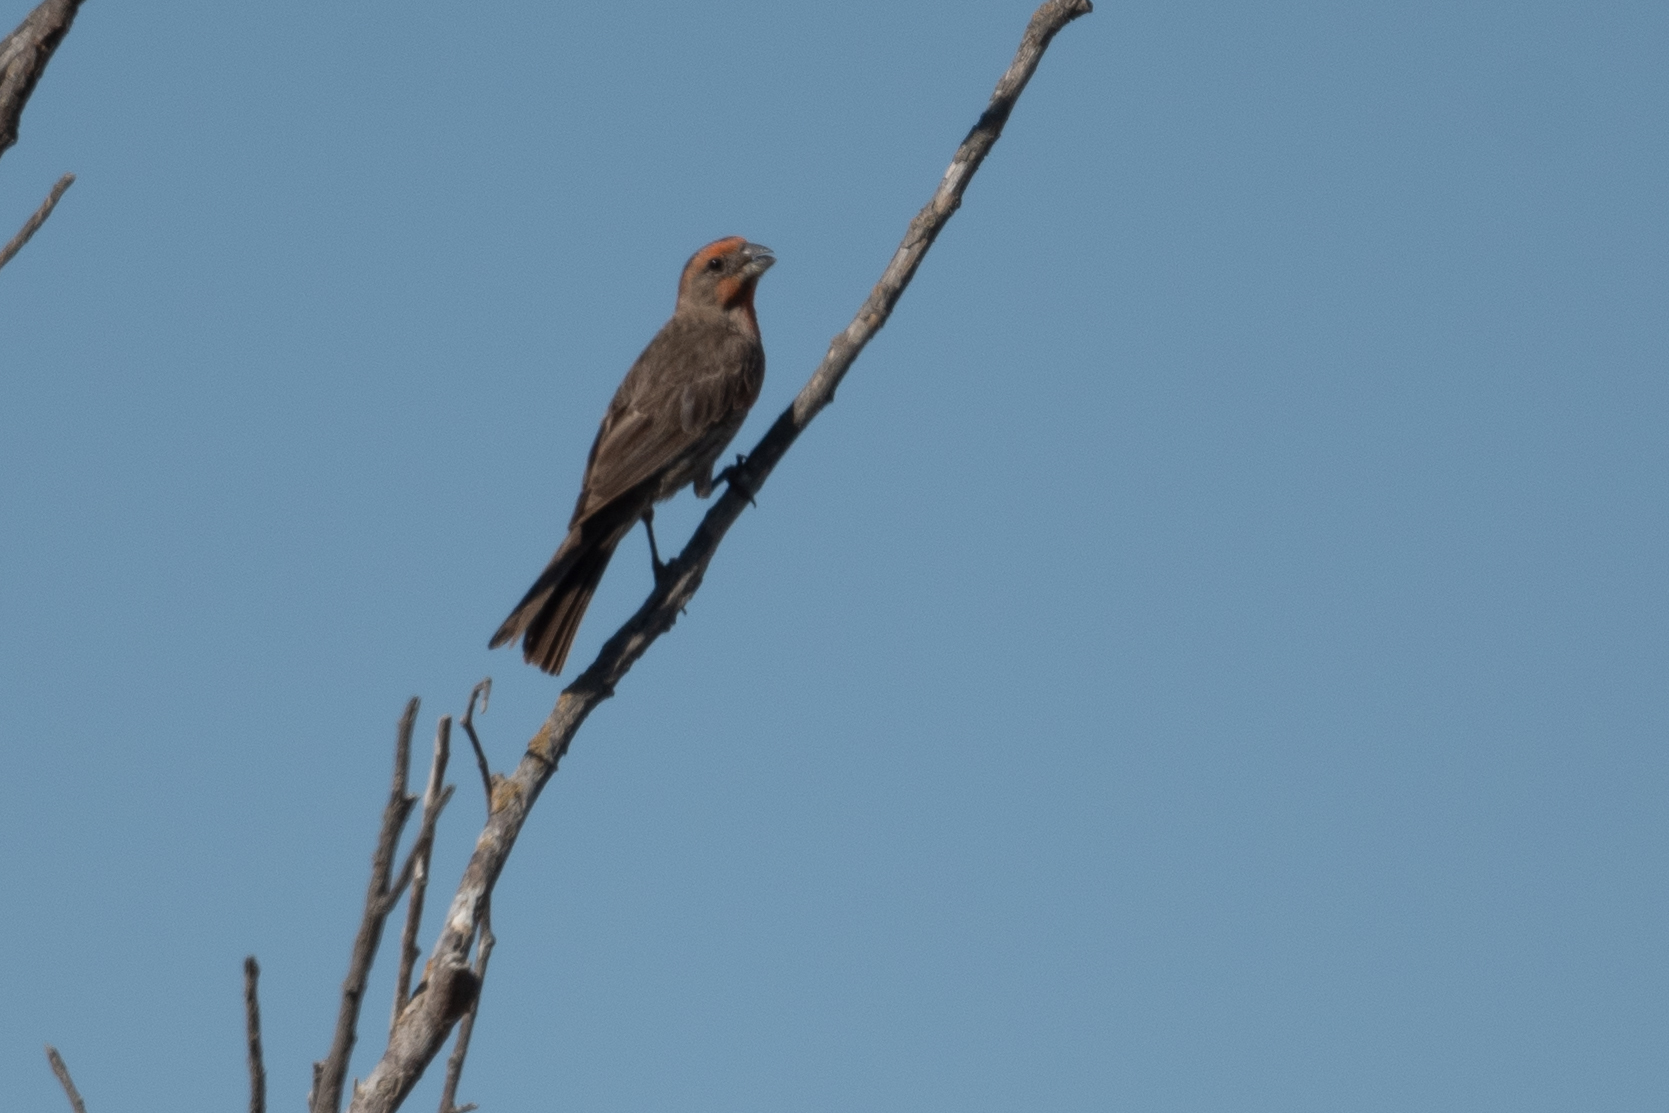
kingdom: Animalia
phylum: Chordata
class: Aves
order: Passeriformes
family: Fringillidae
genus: Haemorhous
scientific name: Haemorhous mexicanus
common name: House finch
